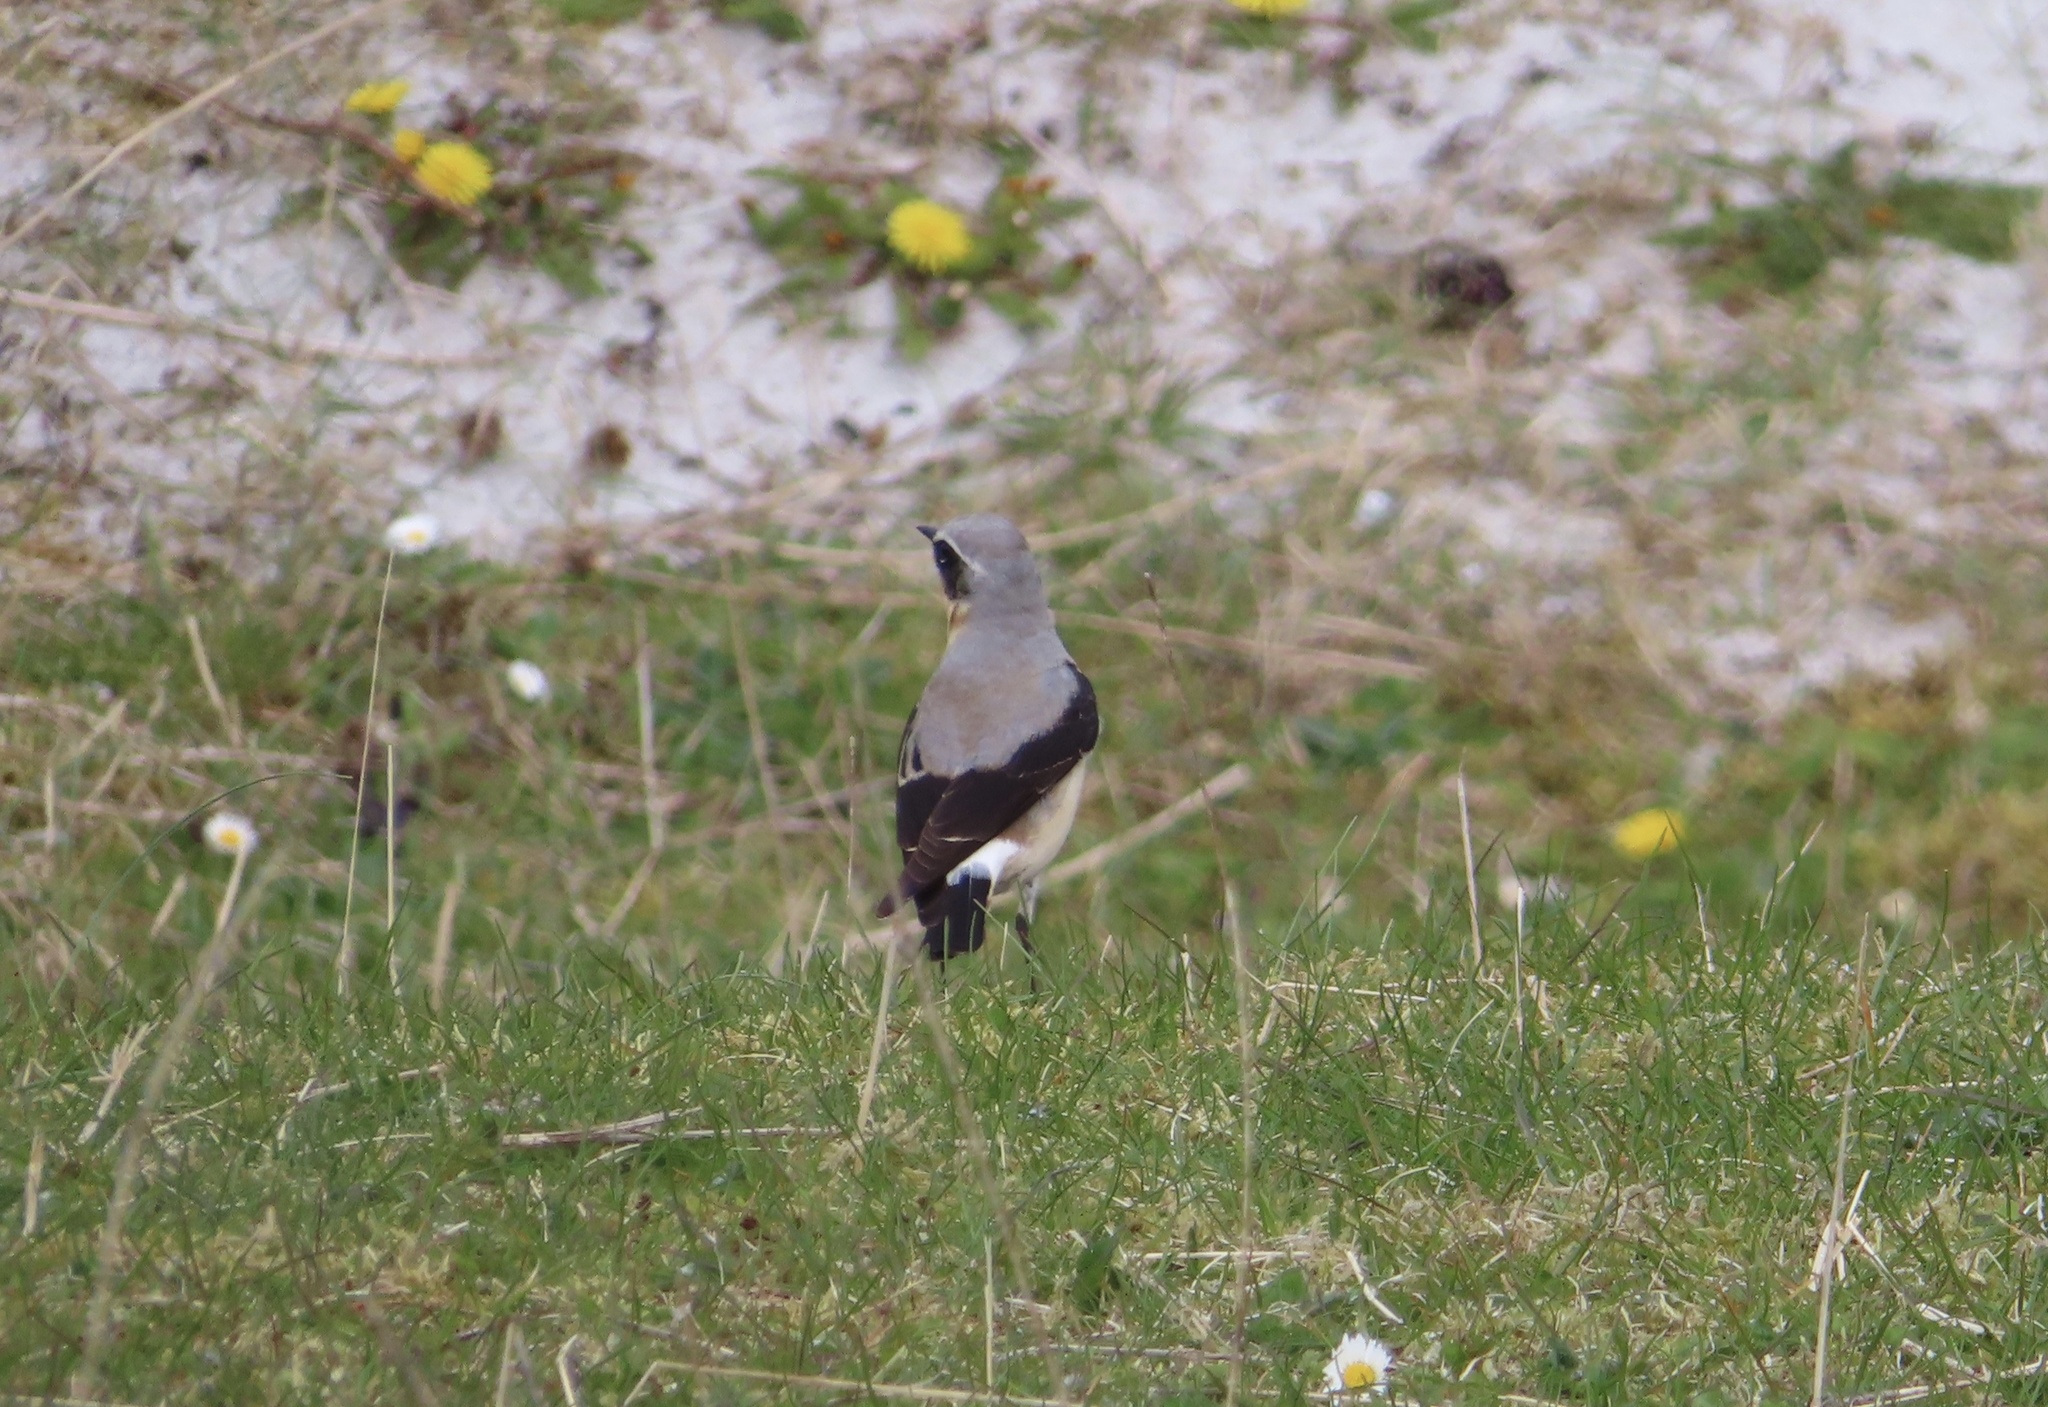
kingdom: Animalia
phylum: Chordata
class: Aves
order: Passeriformes
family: Muscicapidae
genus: Oenanthe
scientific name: Oenanthe oenanthe
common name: Northern wheatear
